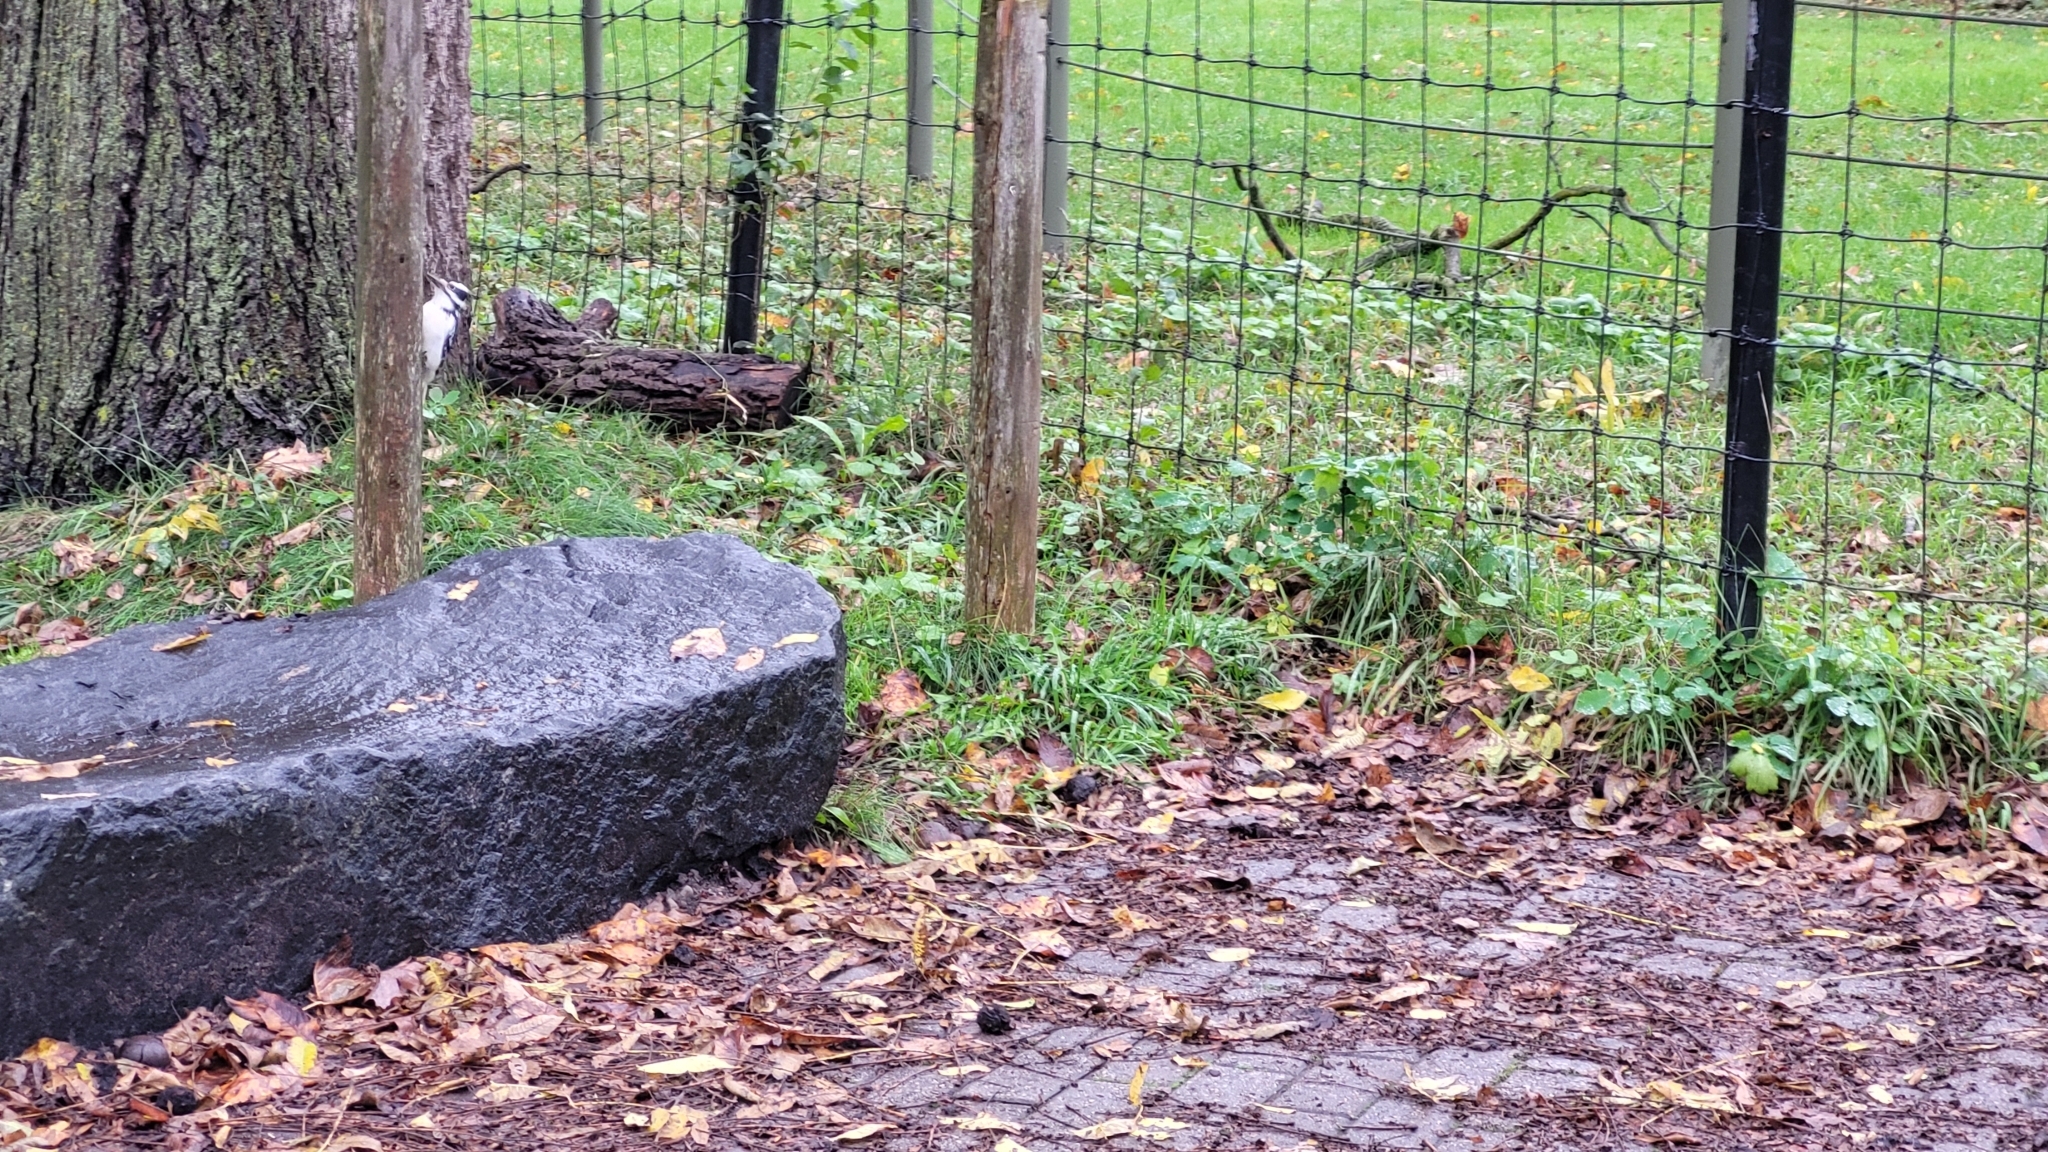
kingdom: Animalia
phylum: Chordata
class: Aves
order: Piciformes
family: Picidae
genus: Leuconotopicus
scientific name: Leuconotopicus villosus
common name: Hairy woodpecker
